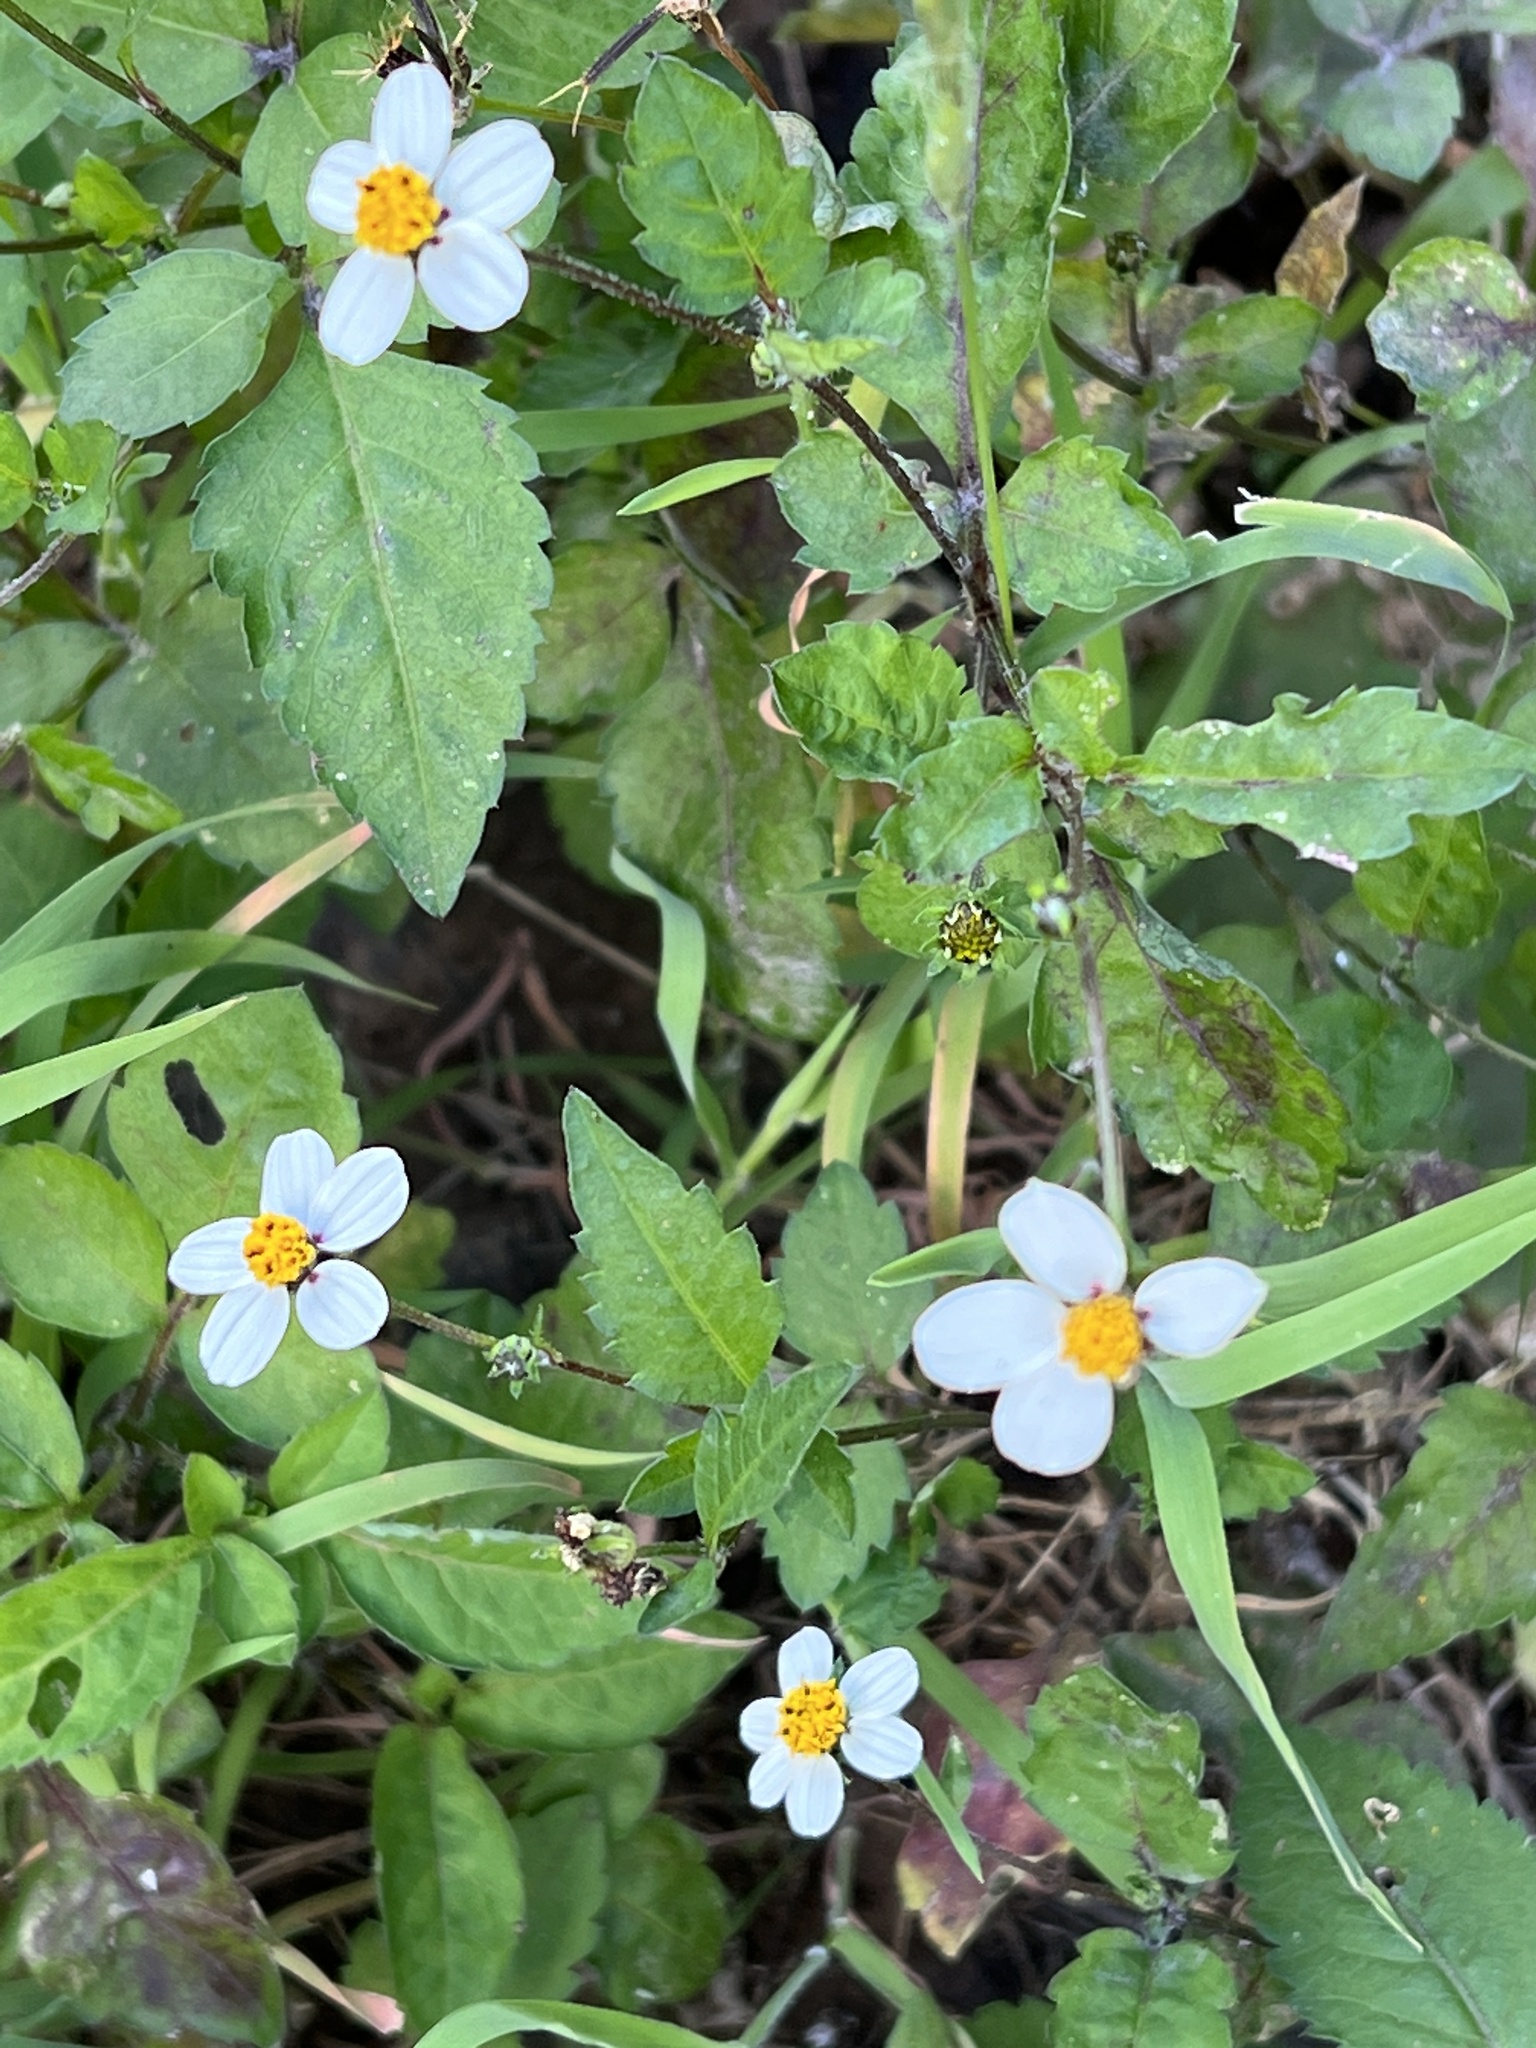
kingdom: Plantae
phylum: Tracheophyta
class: Magnoliopsida
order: Asterales
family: Asteraceae
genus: Bidens
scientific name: Bidens pilosa
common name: Black-jack
